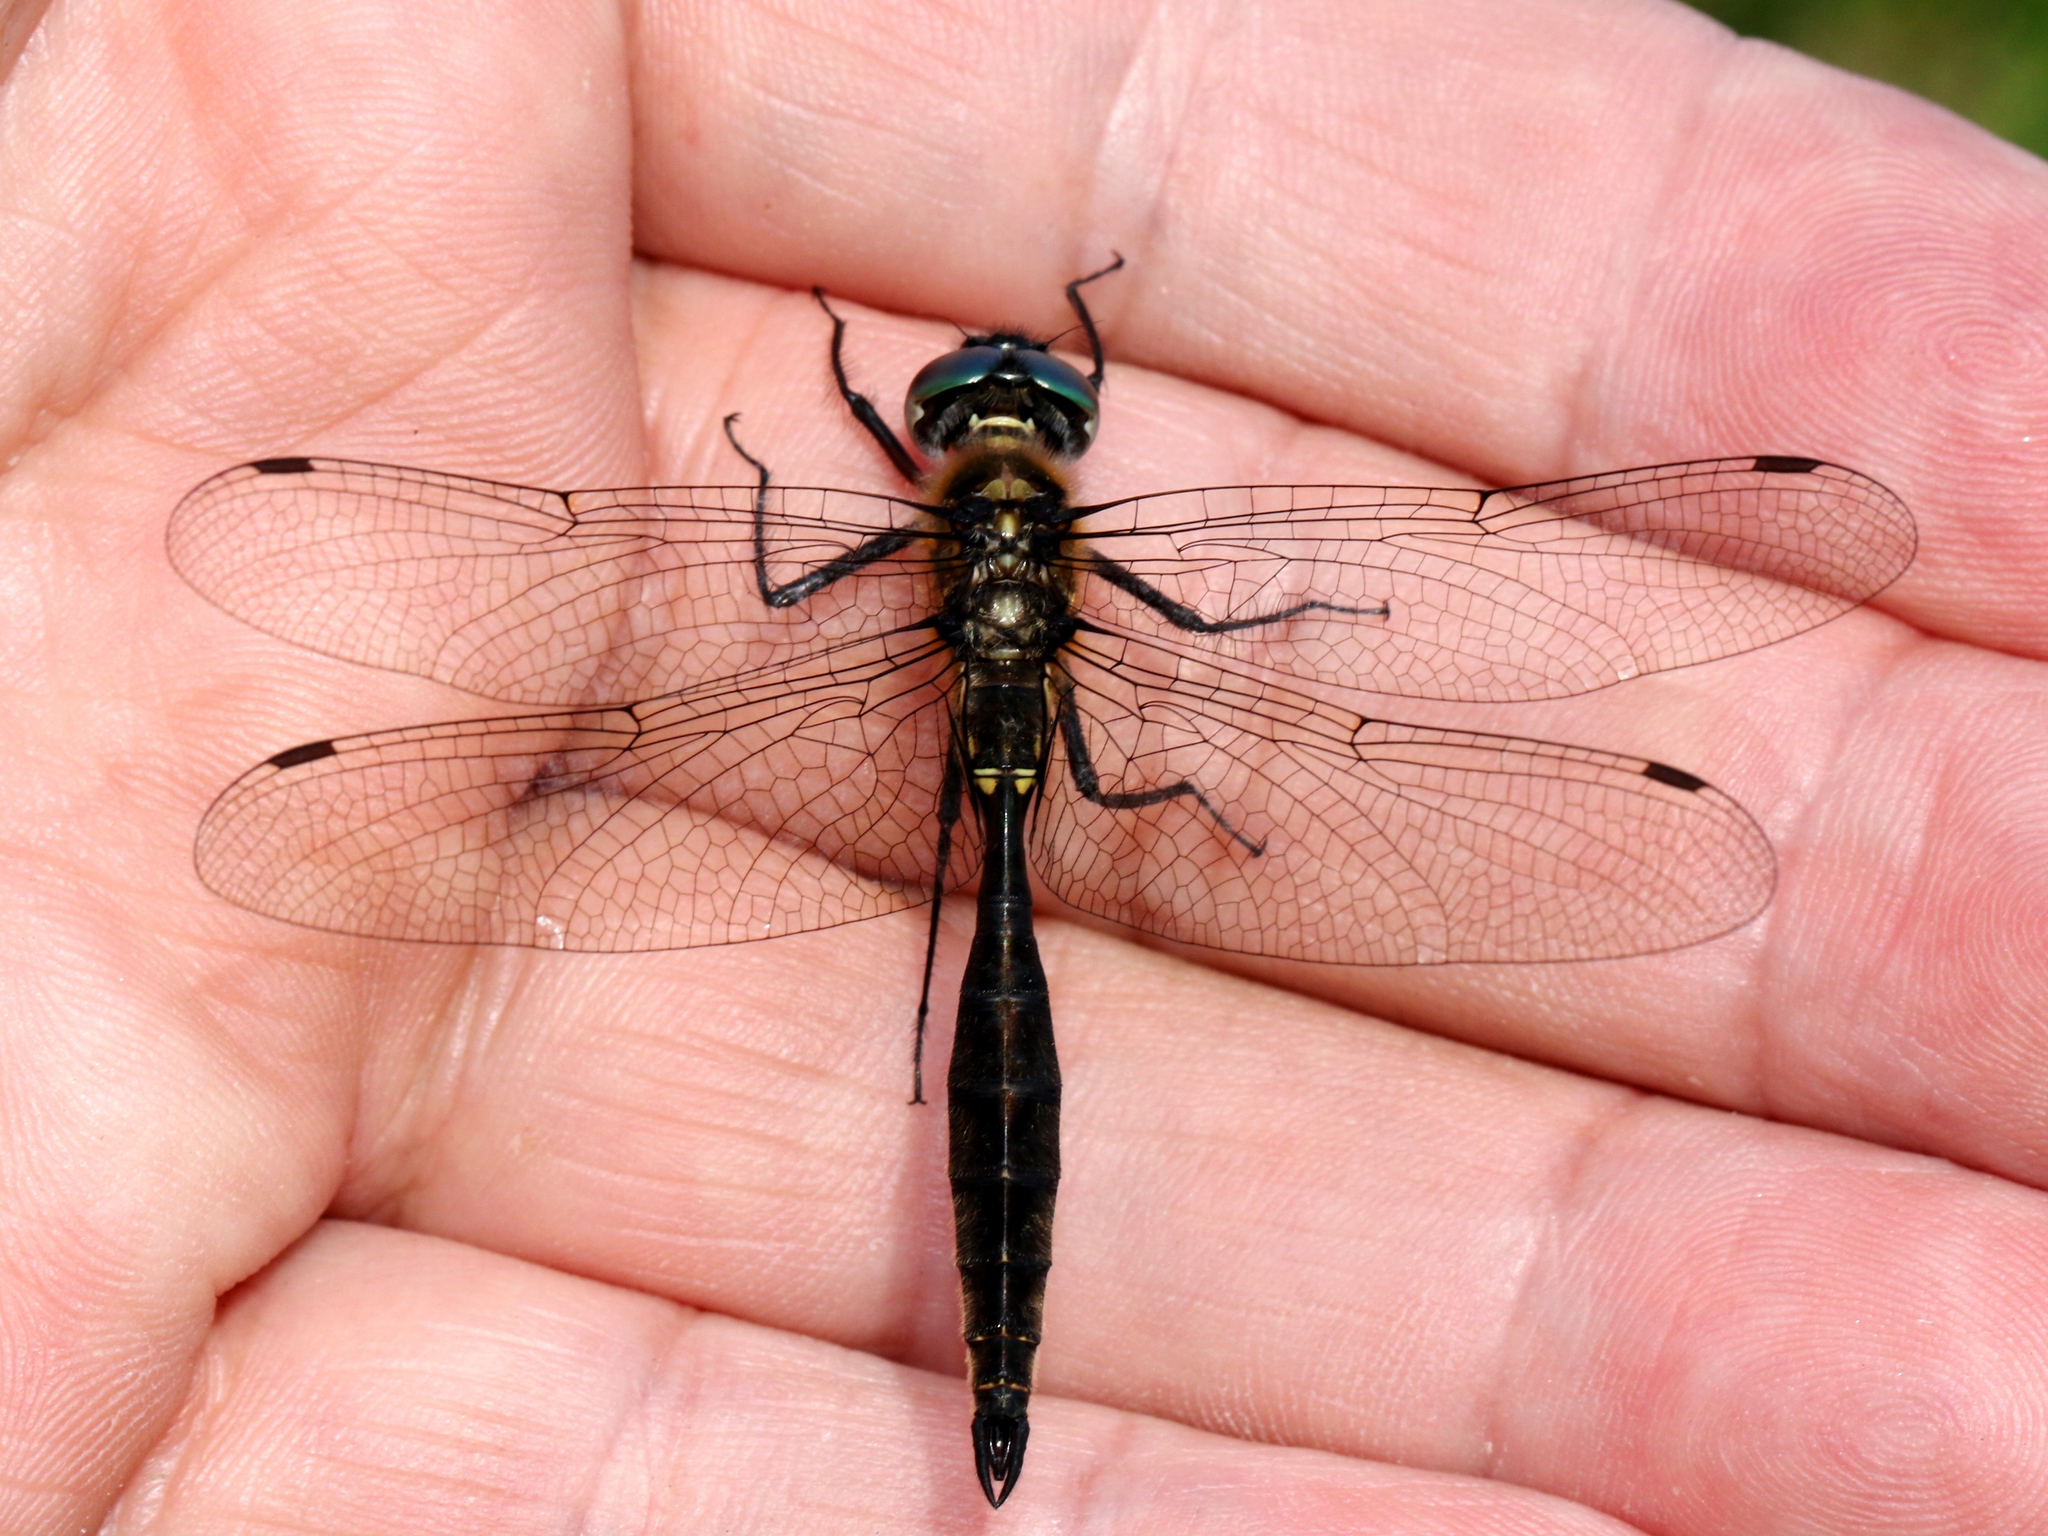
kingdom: Animalia
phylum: Arthropoda
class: Insecta
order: Odonata
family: Corduliidae
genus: Somatochlora
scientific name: Somatochlora minor
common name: Ocellated emerald
